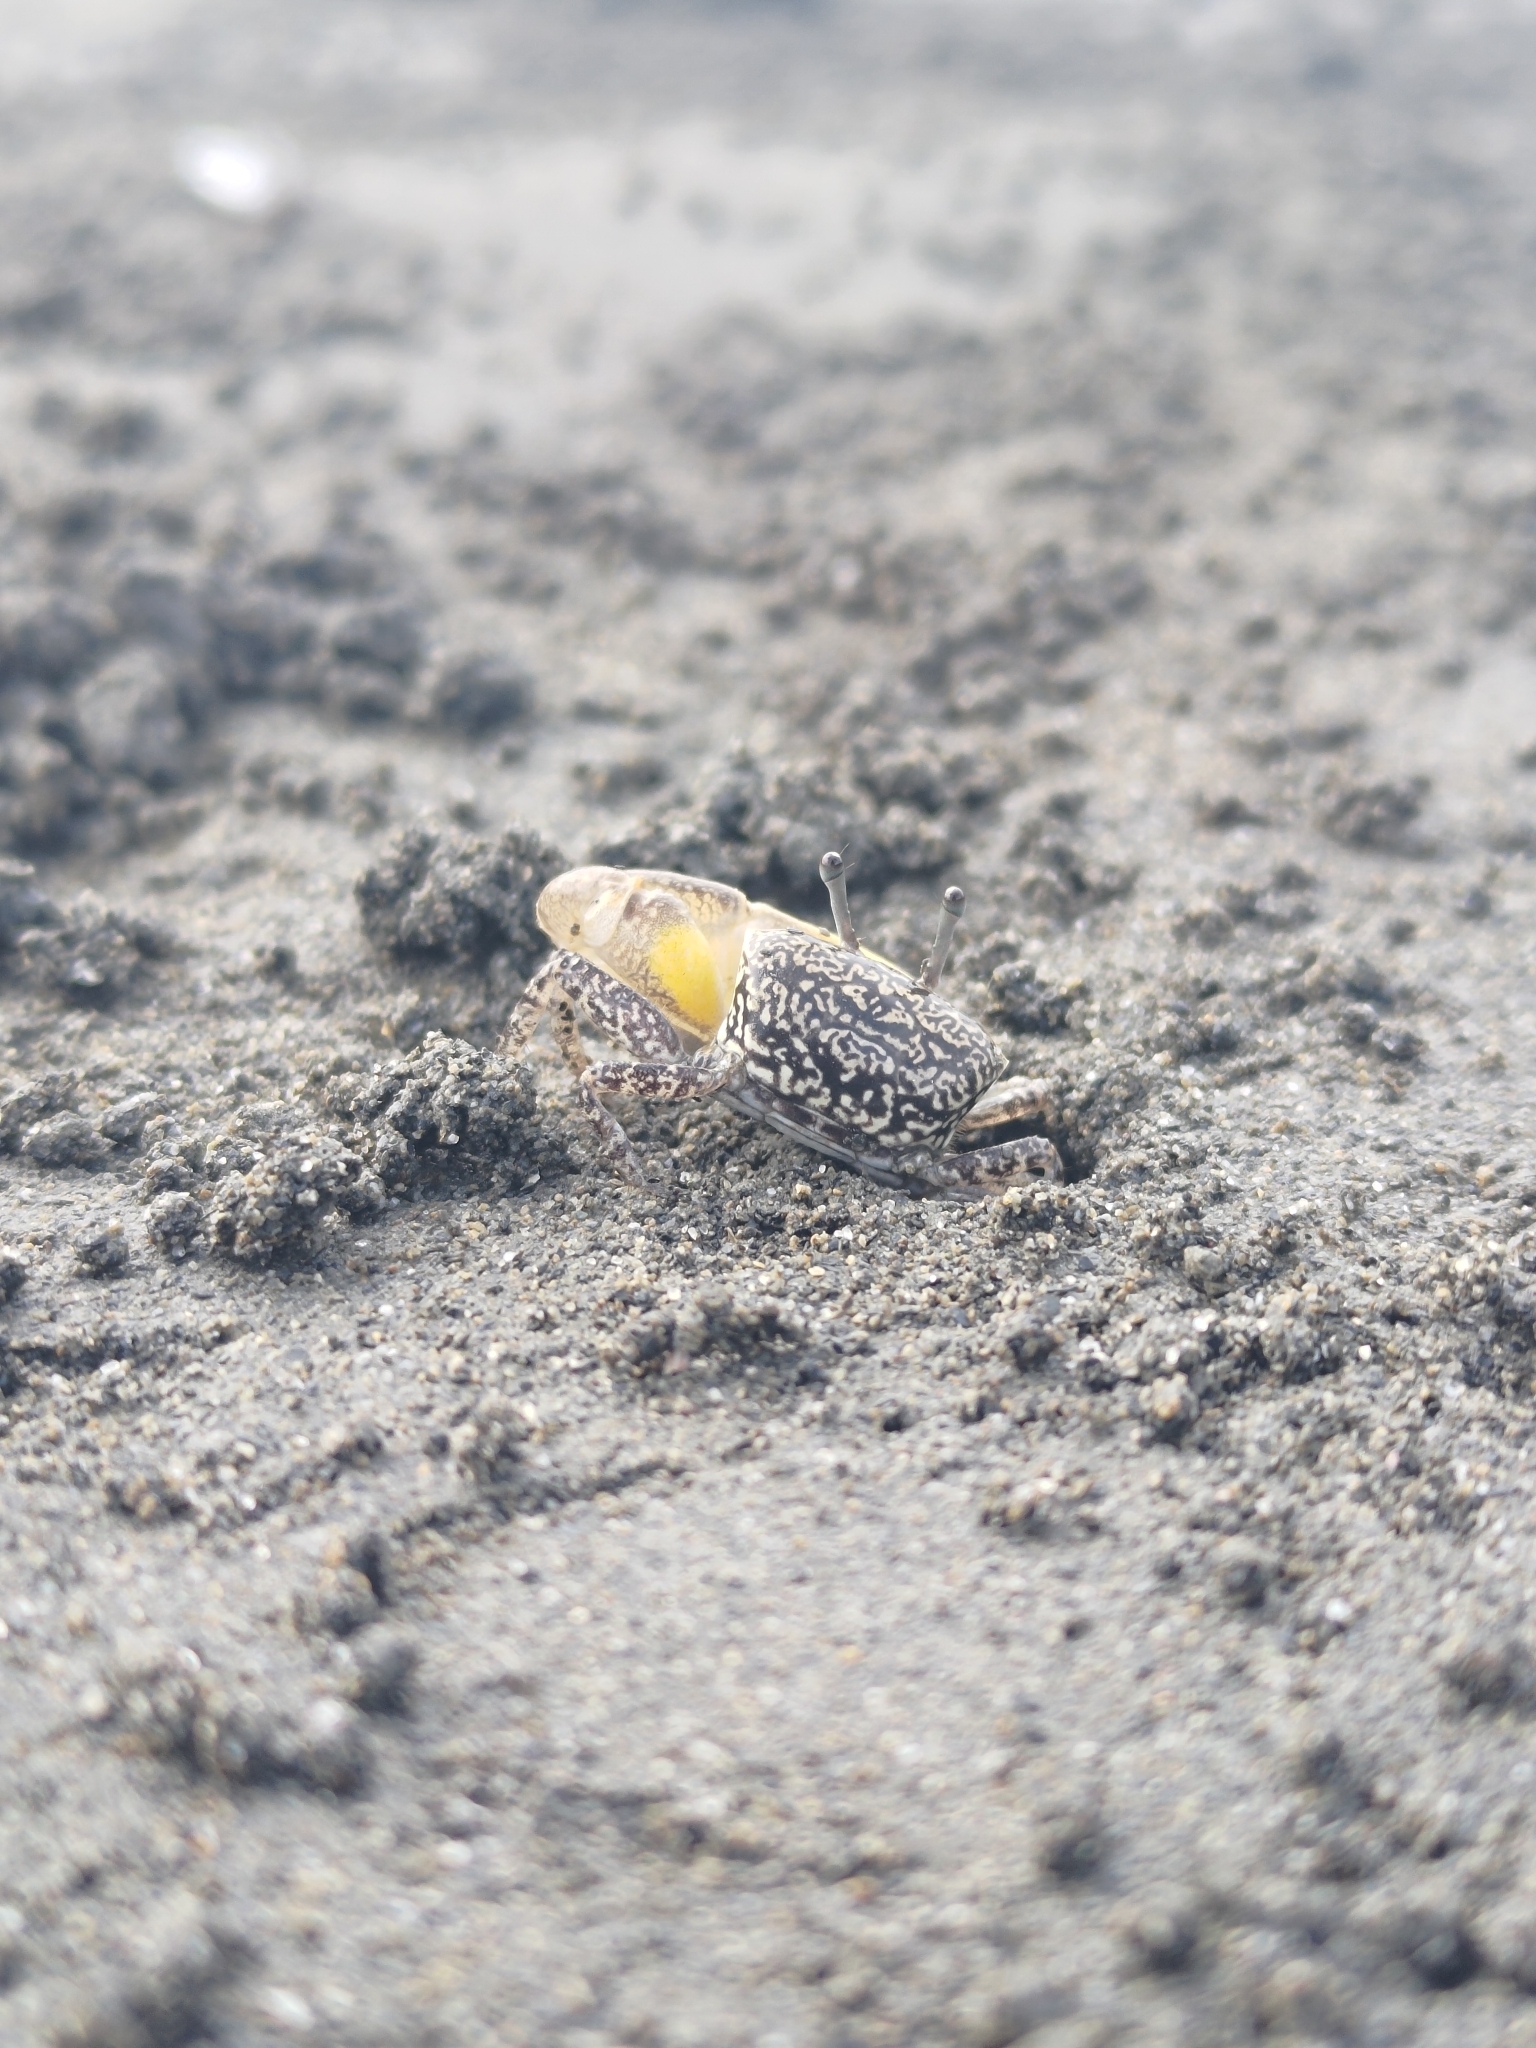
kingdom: Animalia
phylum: Arthropoda
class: Malacostraca
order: Decapoda
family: Ocypodidae
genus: Austruca
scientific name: Austruca perplexa
